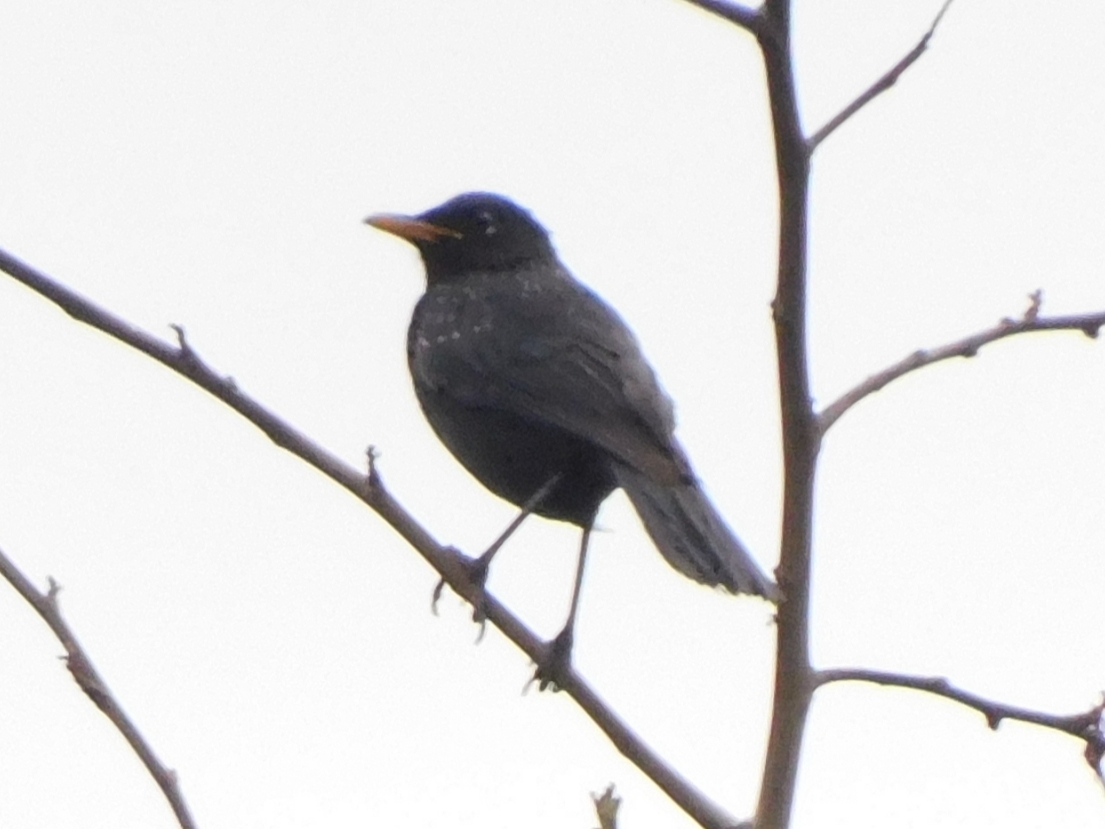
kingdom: Animalia
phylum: Chordata
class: Aves
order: Passeriformes
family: Muscicapidae
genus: Myophonus
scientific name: Myophonus caeruleus
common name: Blue whistling-thrush
